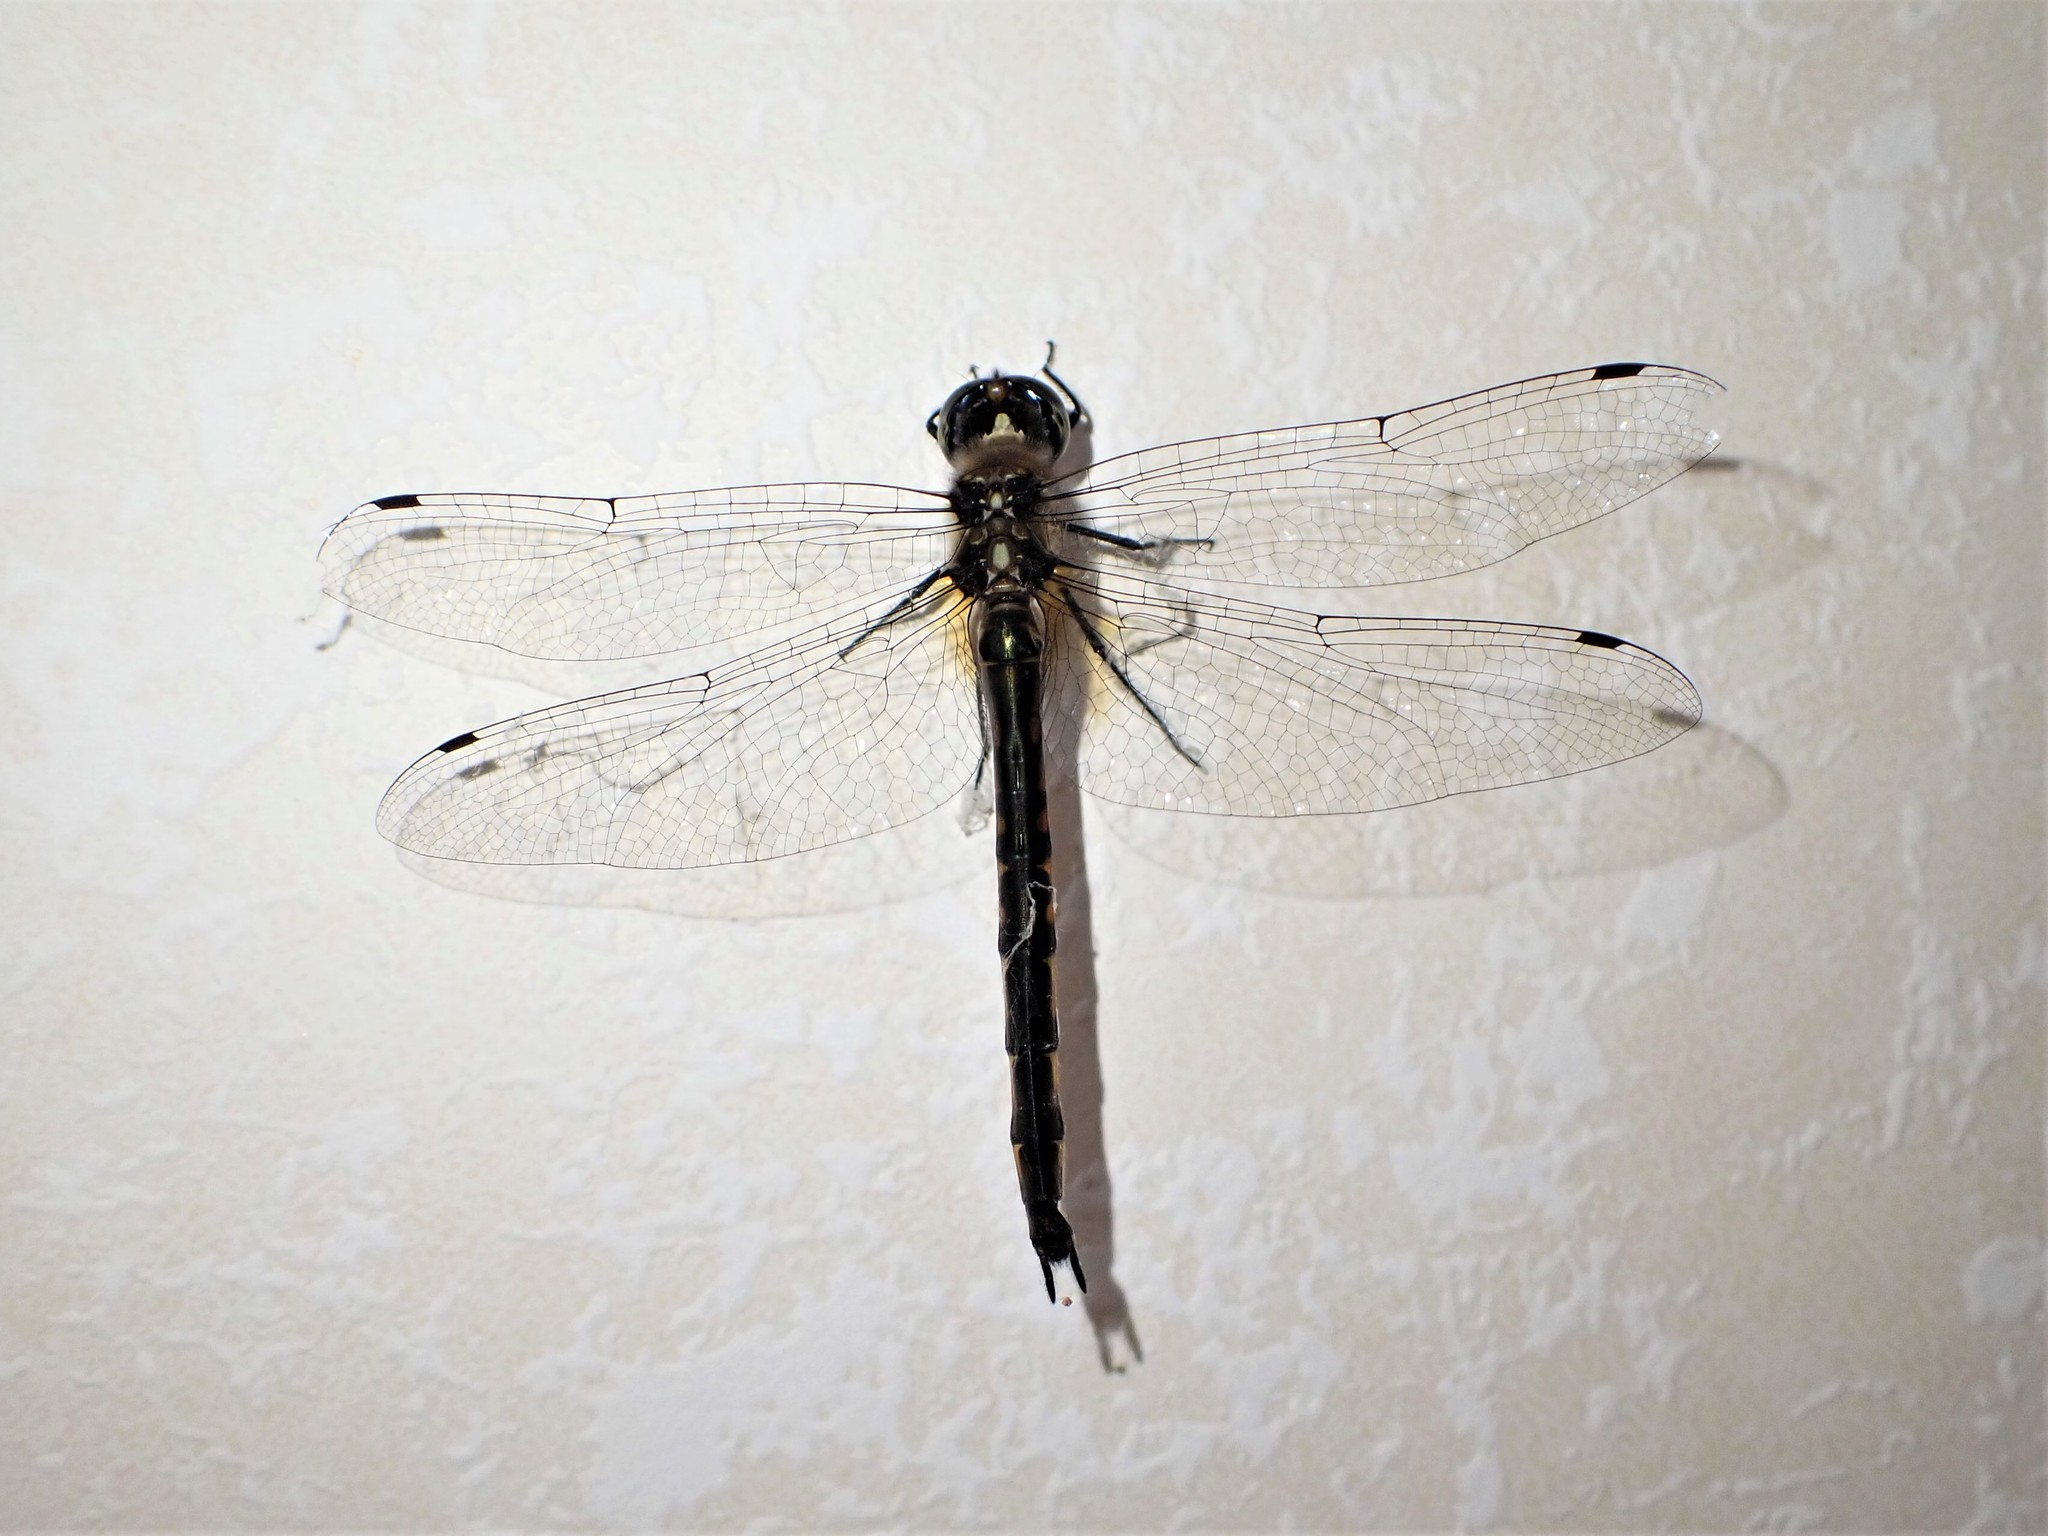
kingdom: Animalia
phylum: Arthropoda
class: Insecta
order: Odonata
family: Corduliidae
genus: Hemicordulia
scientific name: Hemicordulia armstrongi
